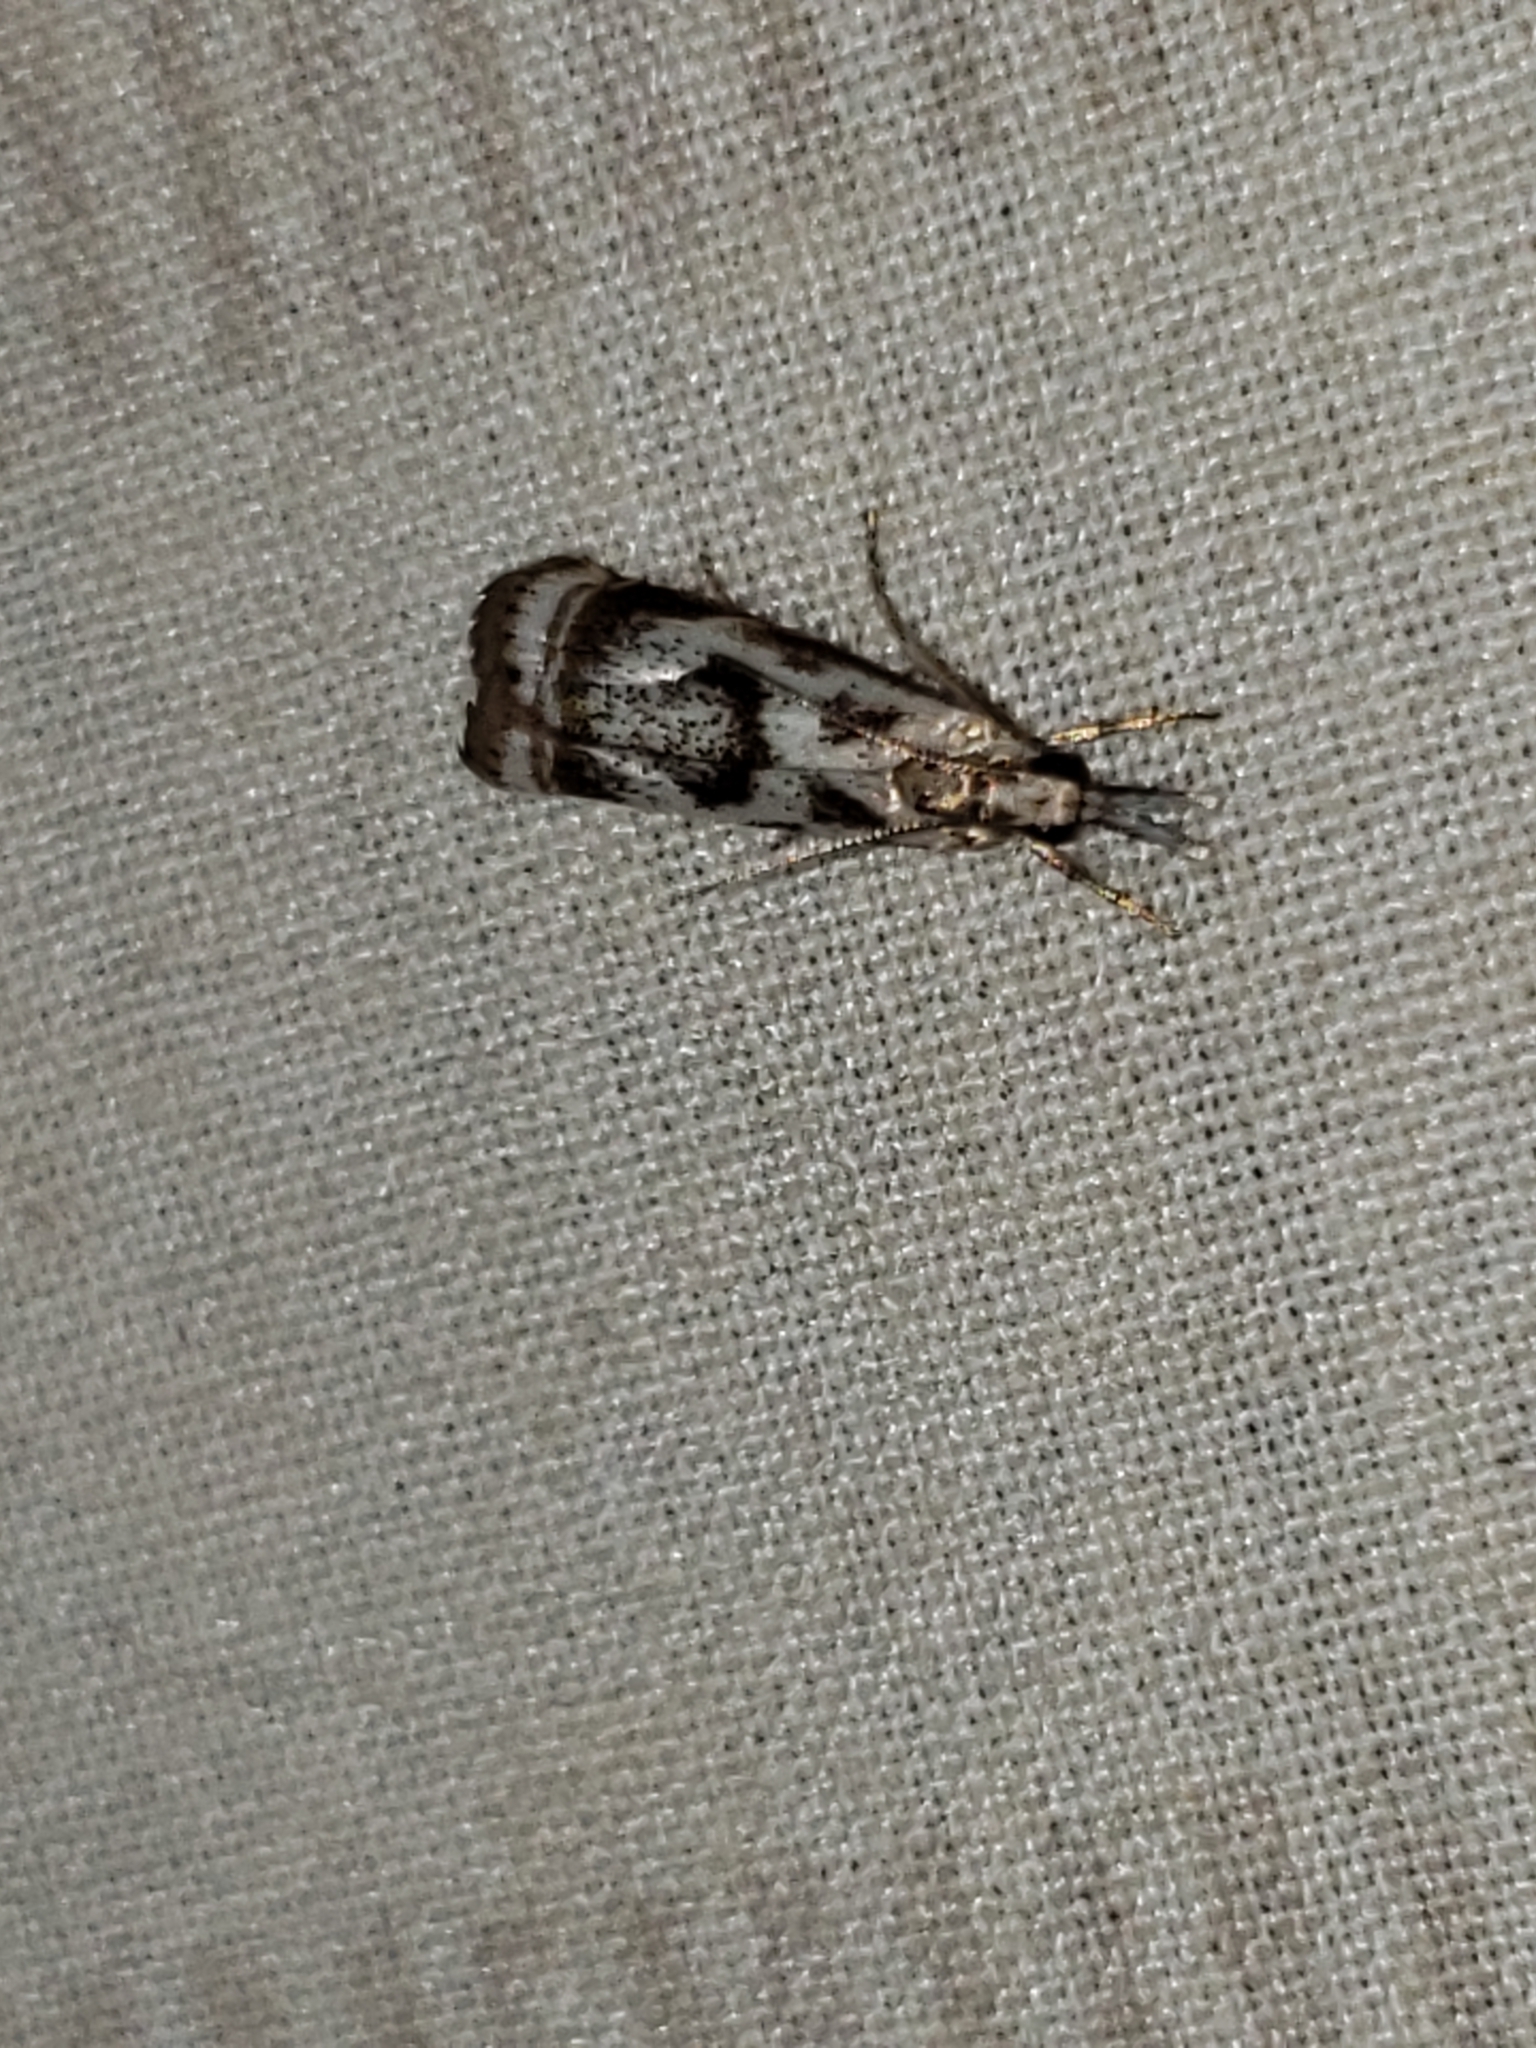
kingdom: Animalia
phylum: Arthropoda
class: Insecta
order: Lepidoptera
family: Crambidae
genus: Microcrambus
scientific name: Microcrambus elegans
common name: Elegant grass-veneer
